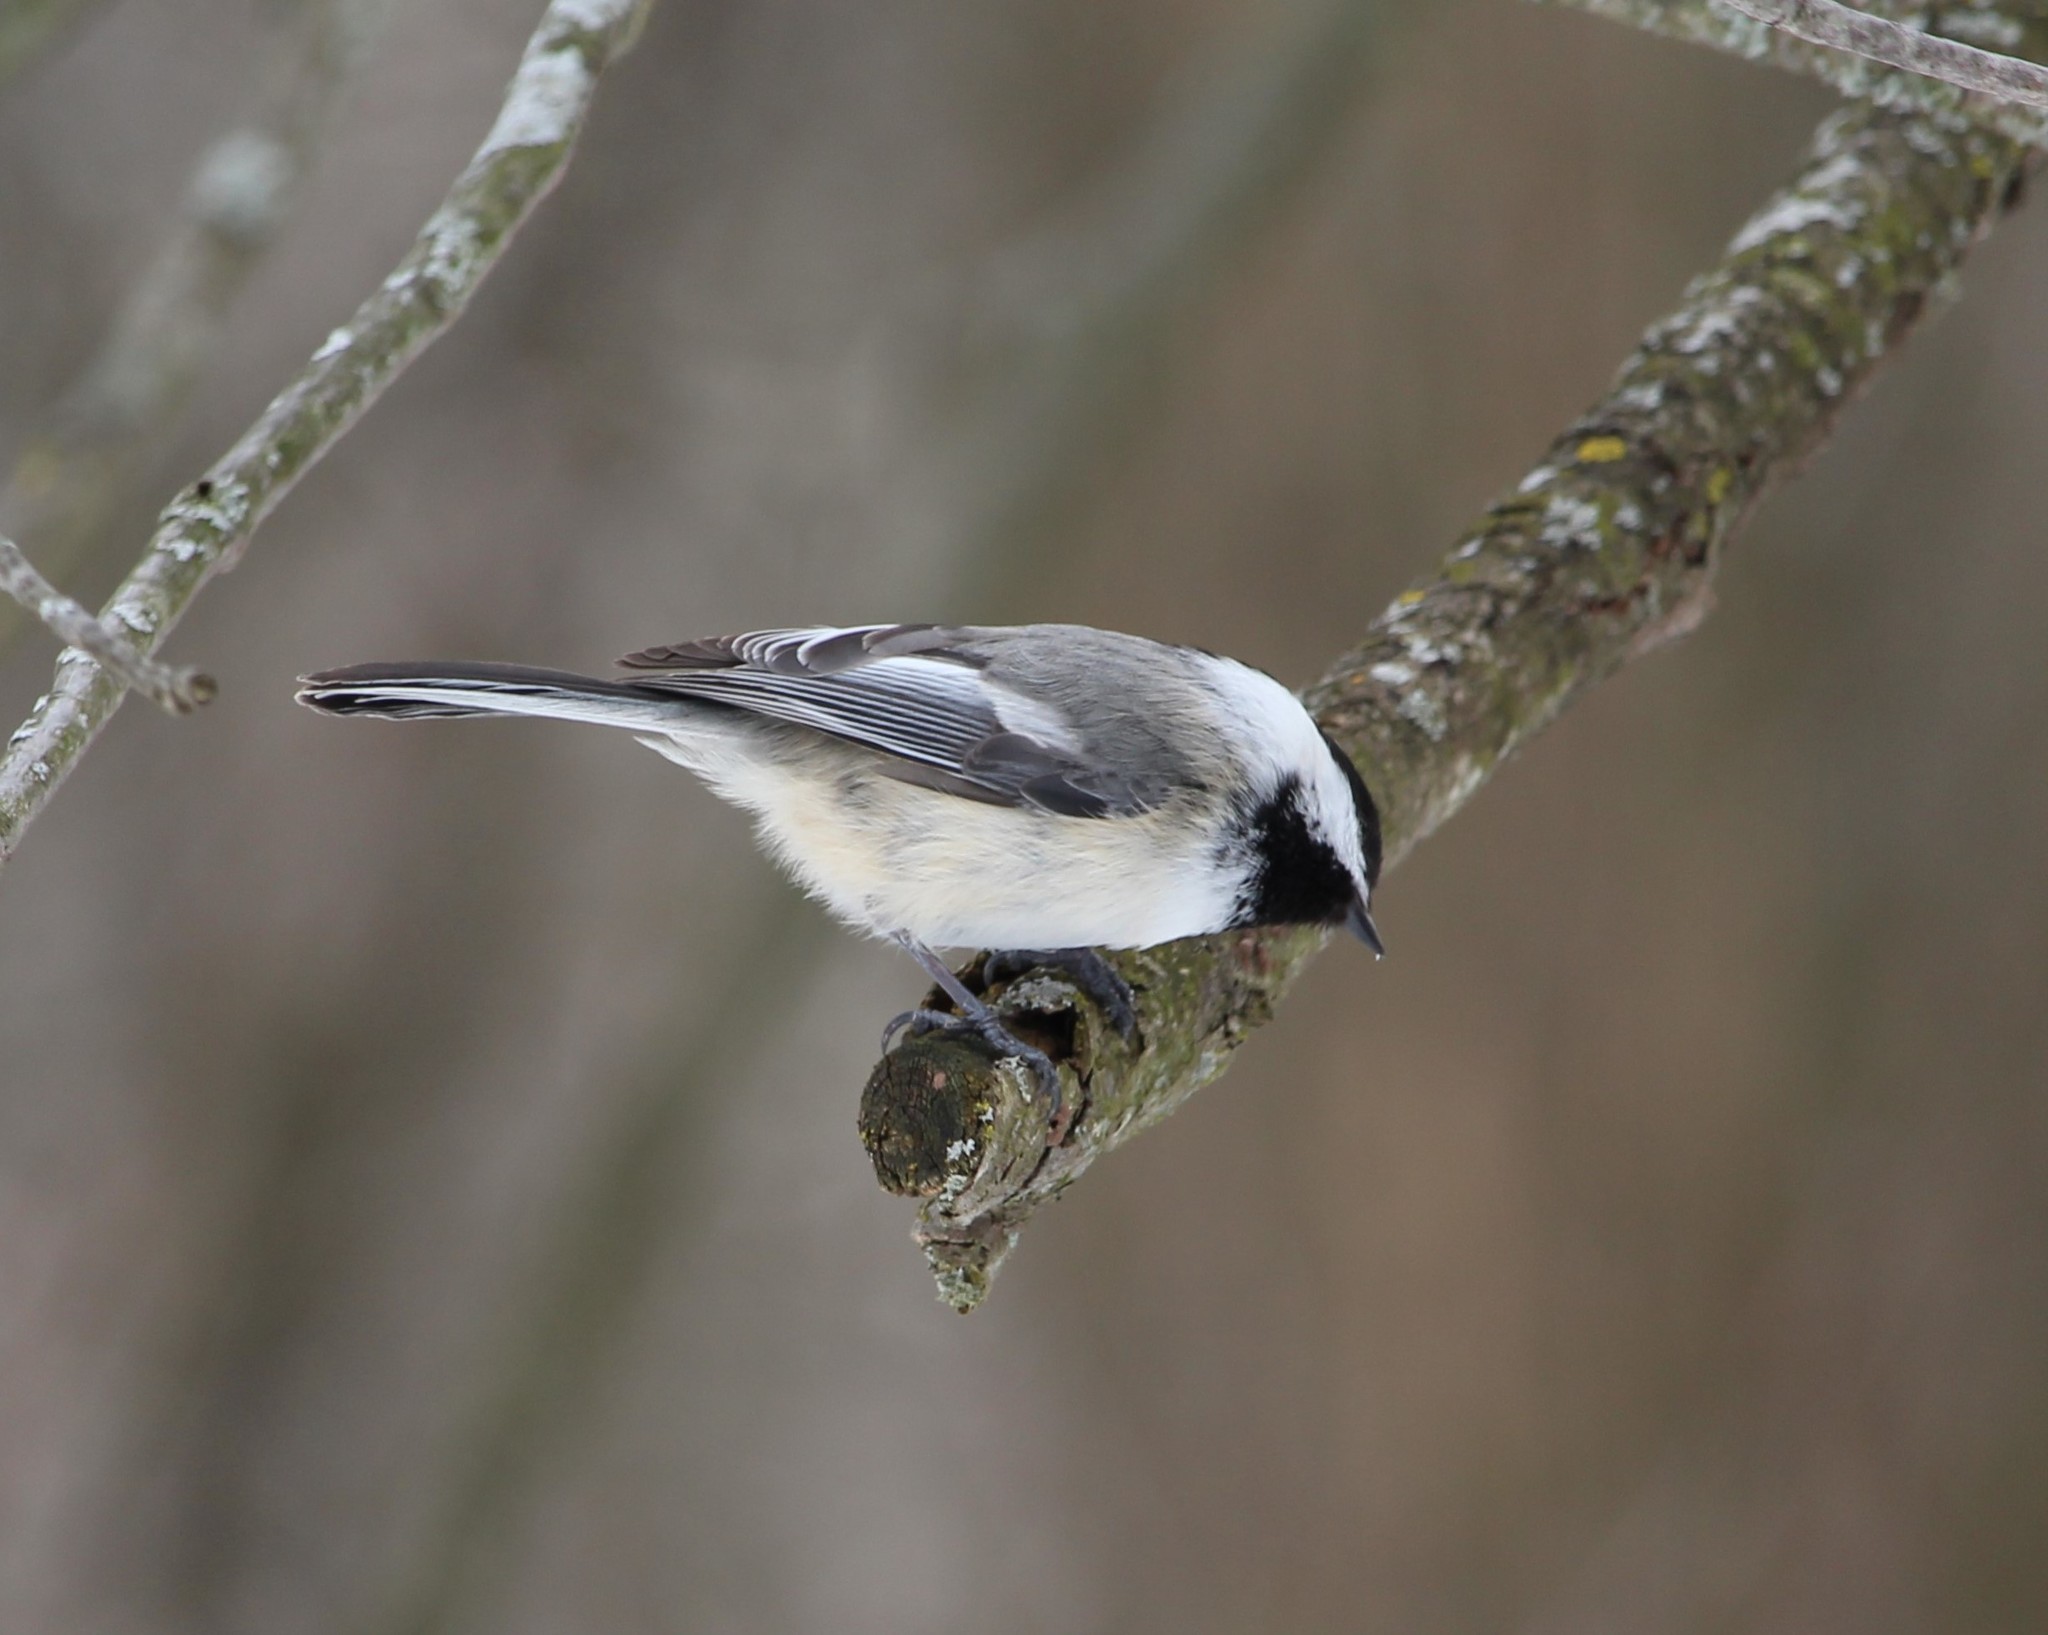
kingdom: Animalia
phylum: Chordata
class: Aves
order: Passeriformes
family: Paridae
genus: Poecile
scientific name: Poecile atricapillus
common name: Black-capped chickadee
